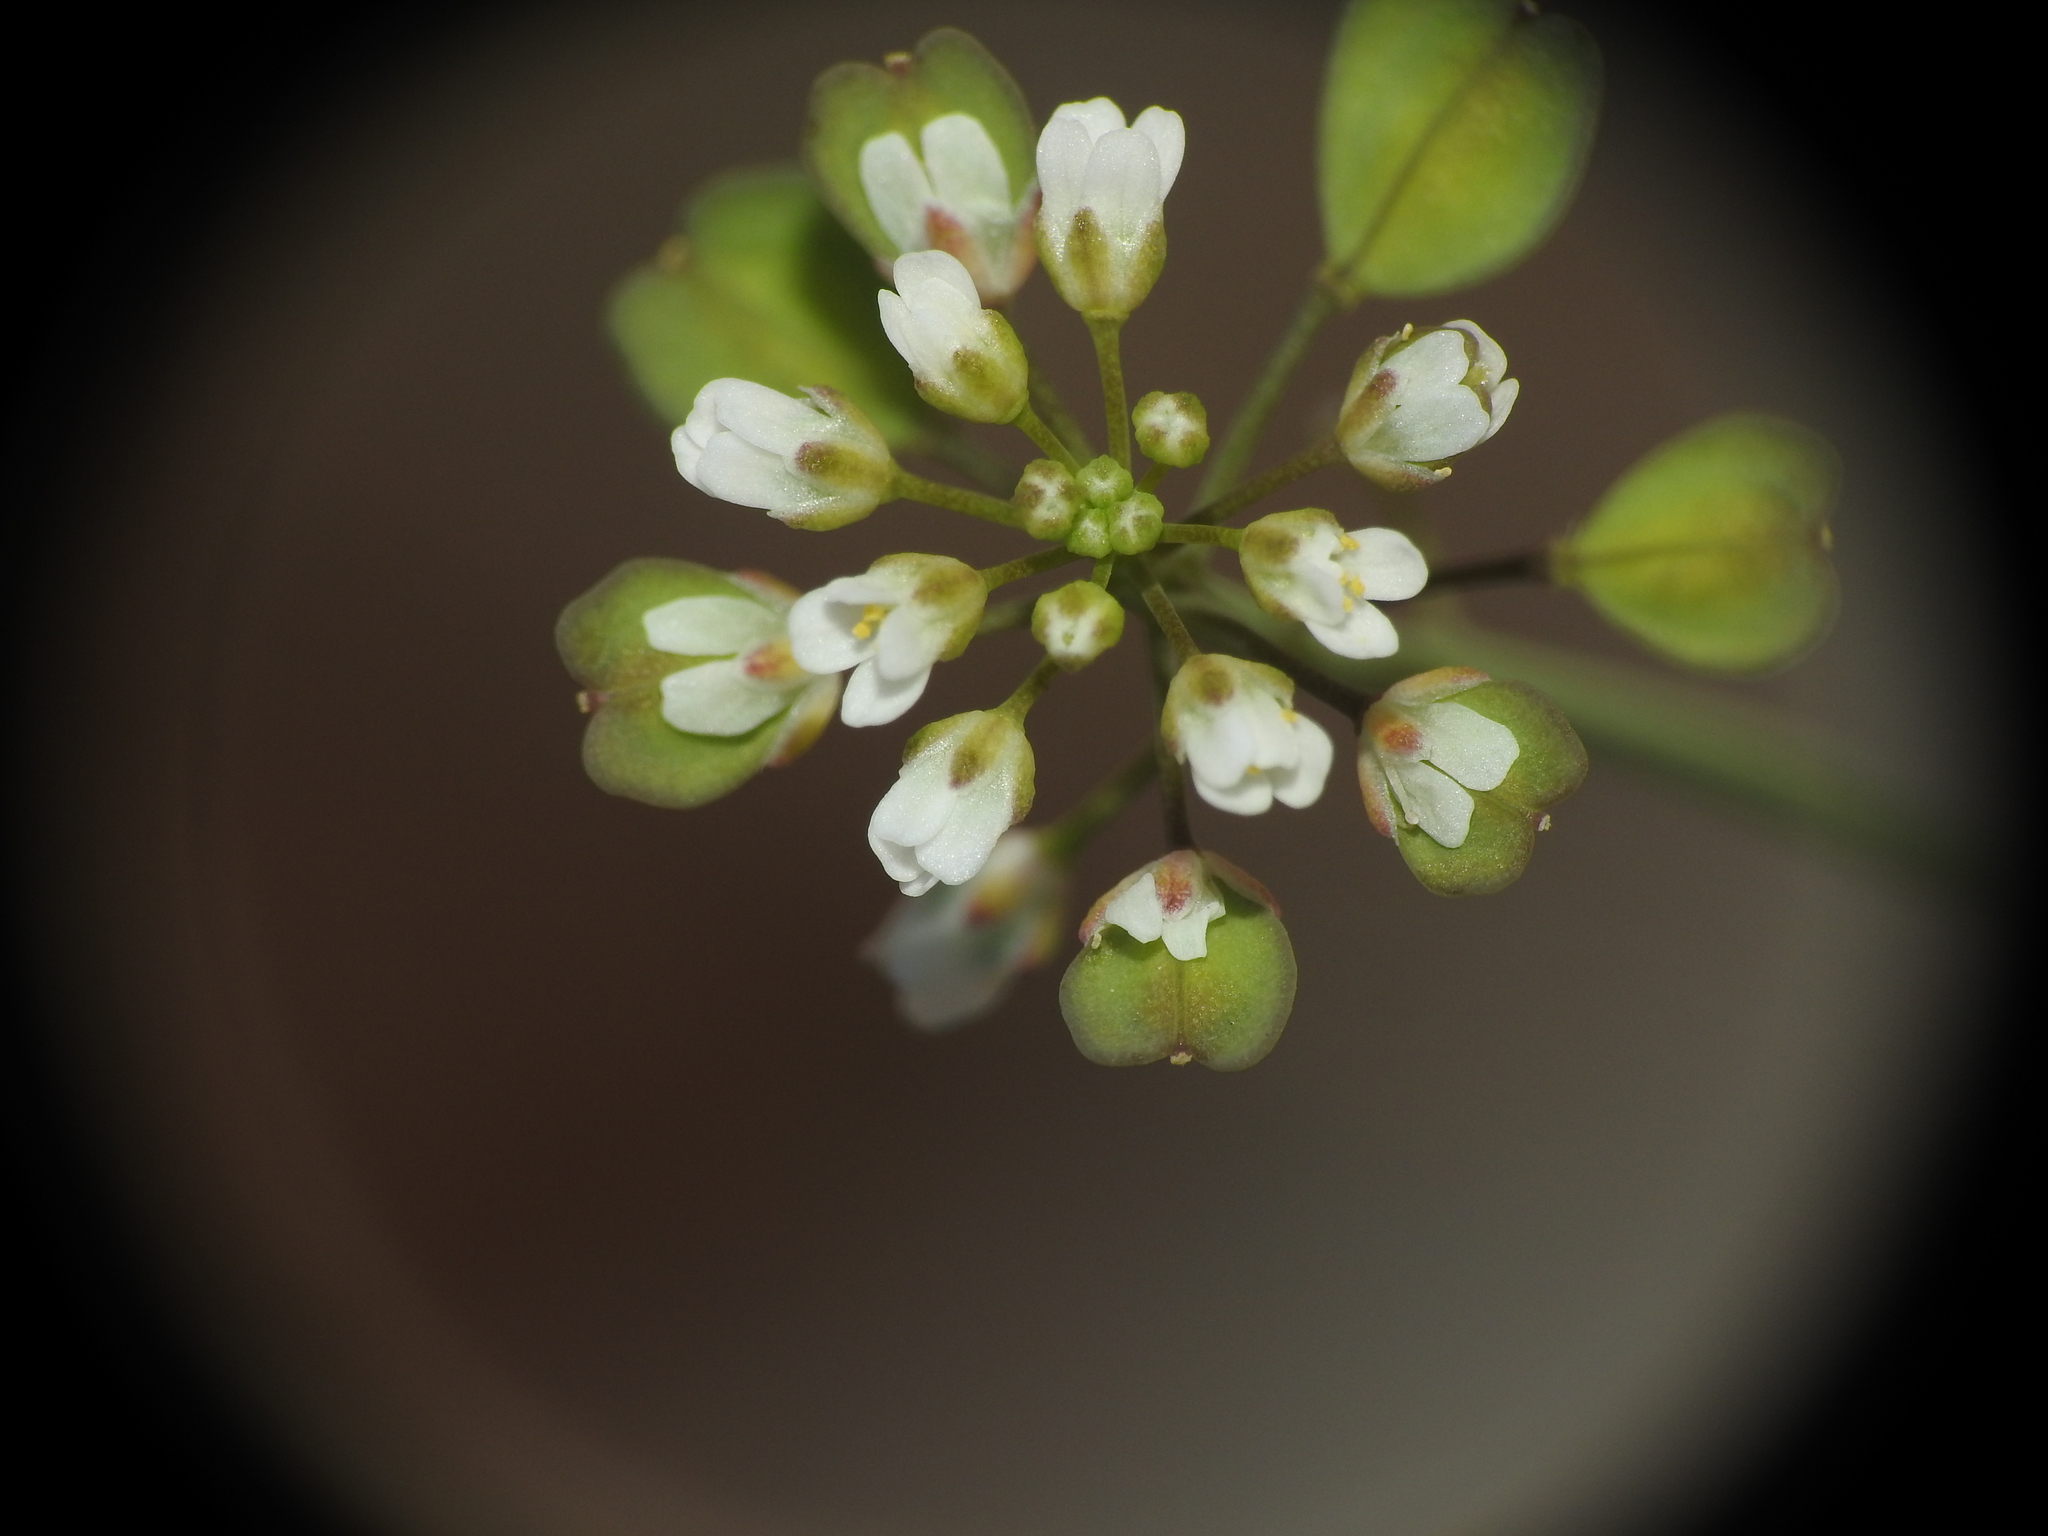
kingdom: Plantae
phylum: Tracheophyta
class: Magnoliopsida
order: Brassicales
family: Brassicaceae
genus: Capsella
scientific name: Capsella bursa-pastoris
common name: Shepherd's purse
